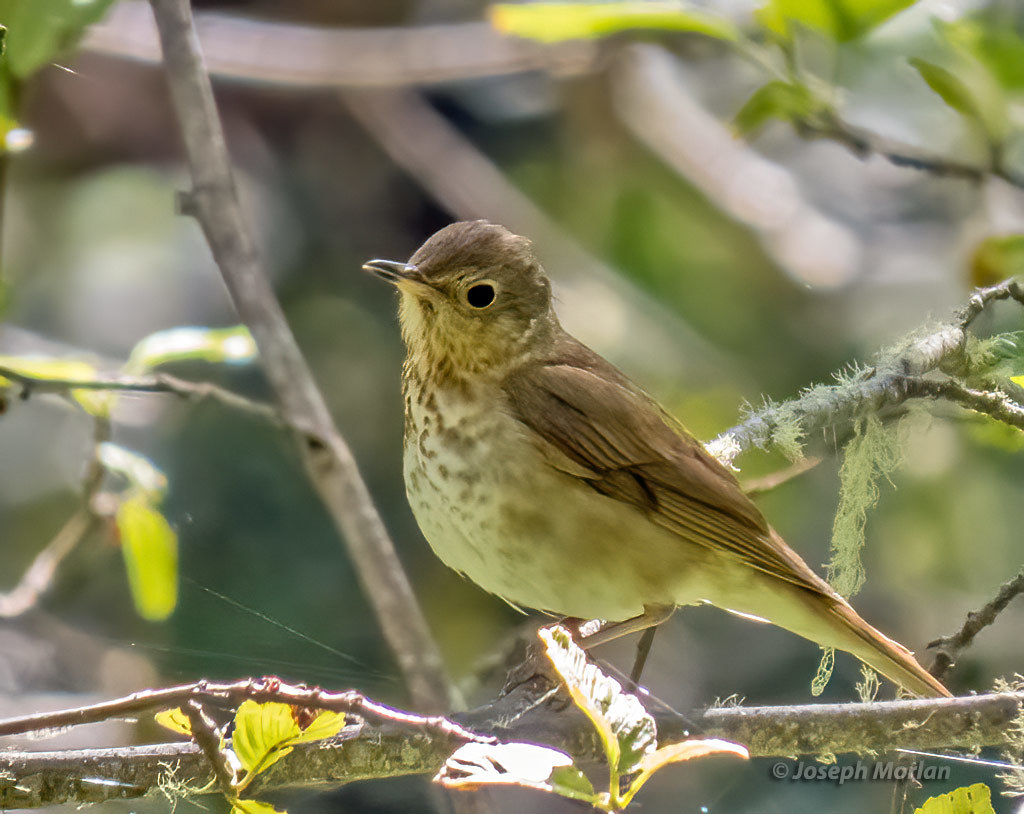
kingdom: Animalia
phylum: Chordata
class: Aves
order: Passeriformes
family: Turdidae
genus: Catharus
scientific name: Catharus ustulatus
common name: Swainson's thrush
